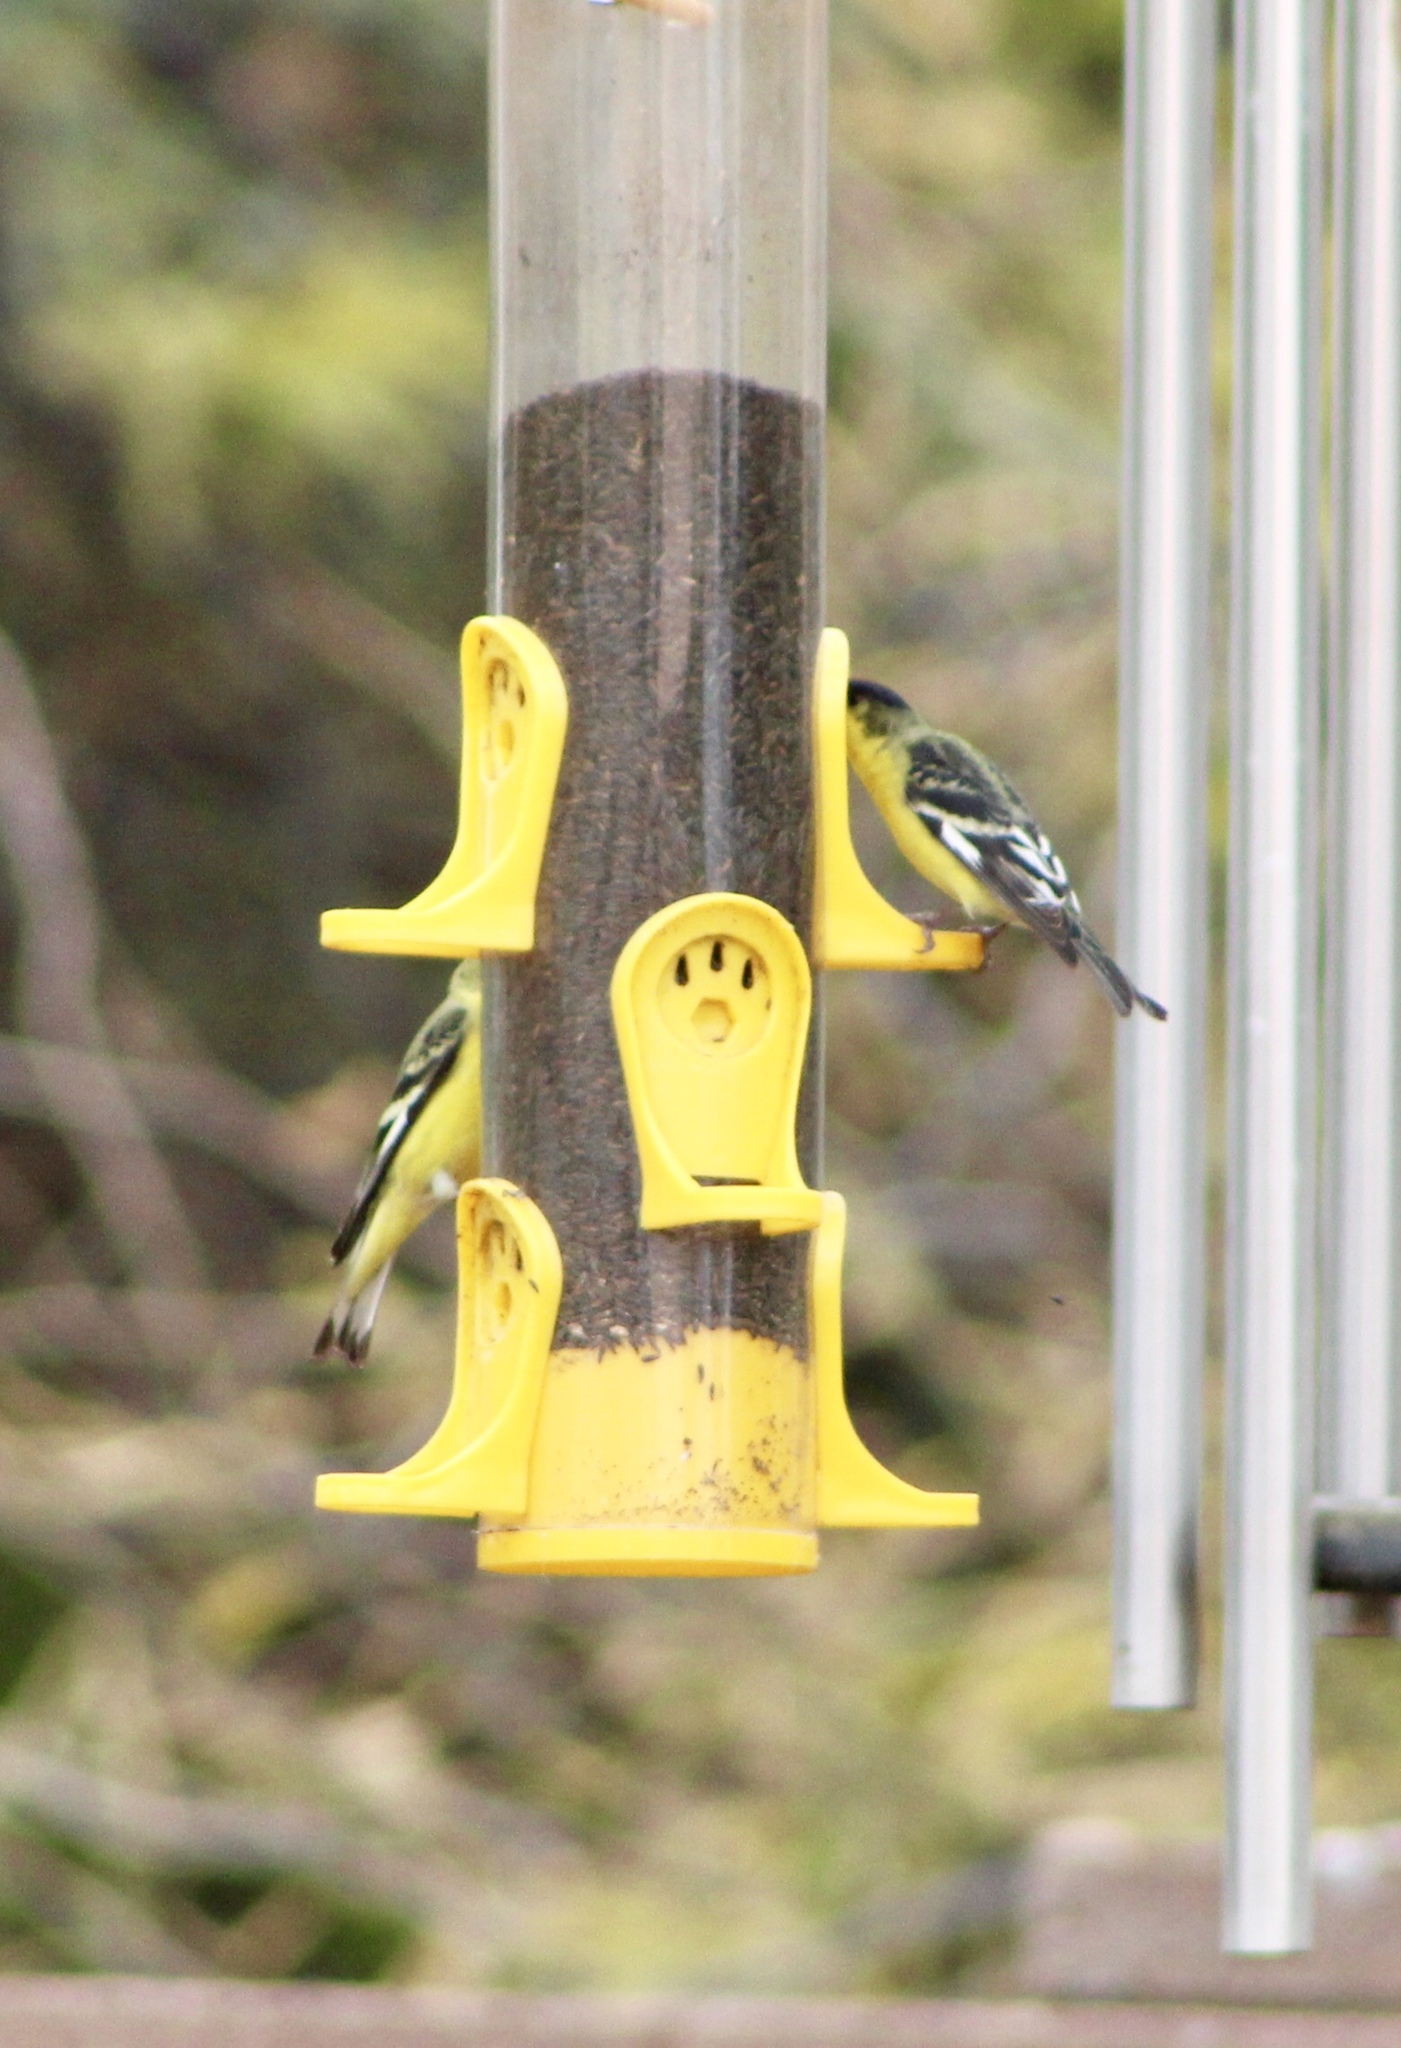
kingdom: Animalia
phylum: Chordata
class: Aves
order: Passeriformes
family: Fringillidae
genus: Spinus
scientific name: Spinus psaltria
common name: Lesser goldfinch
